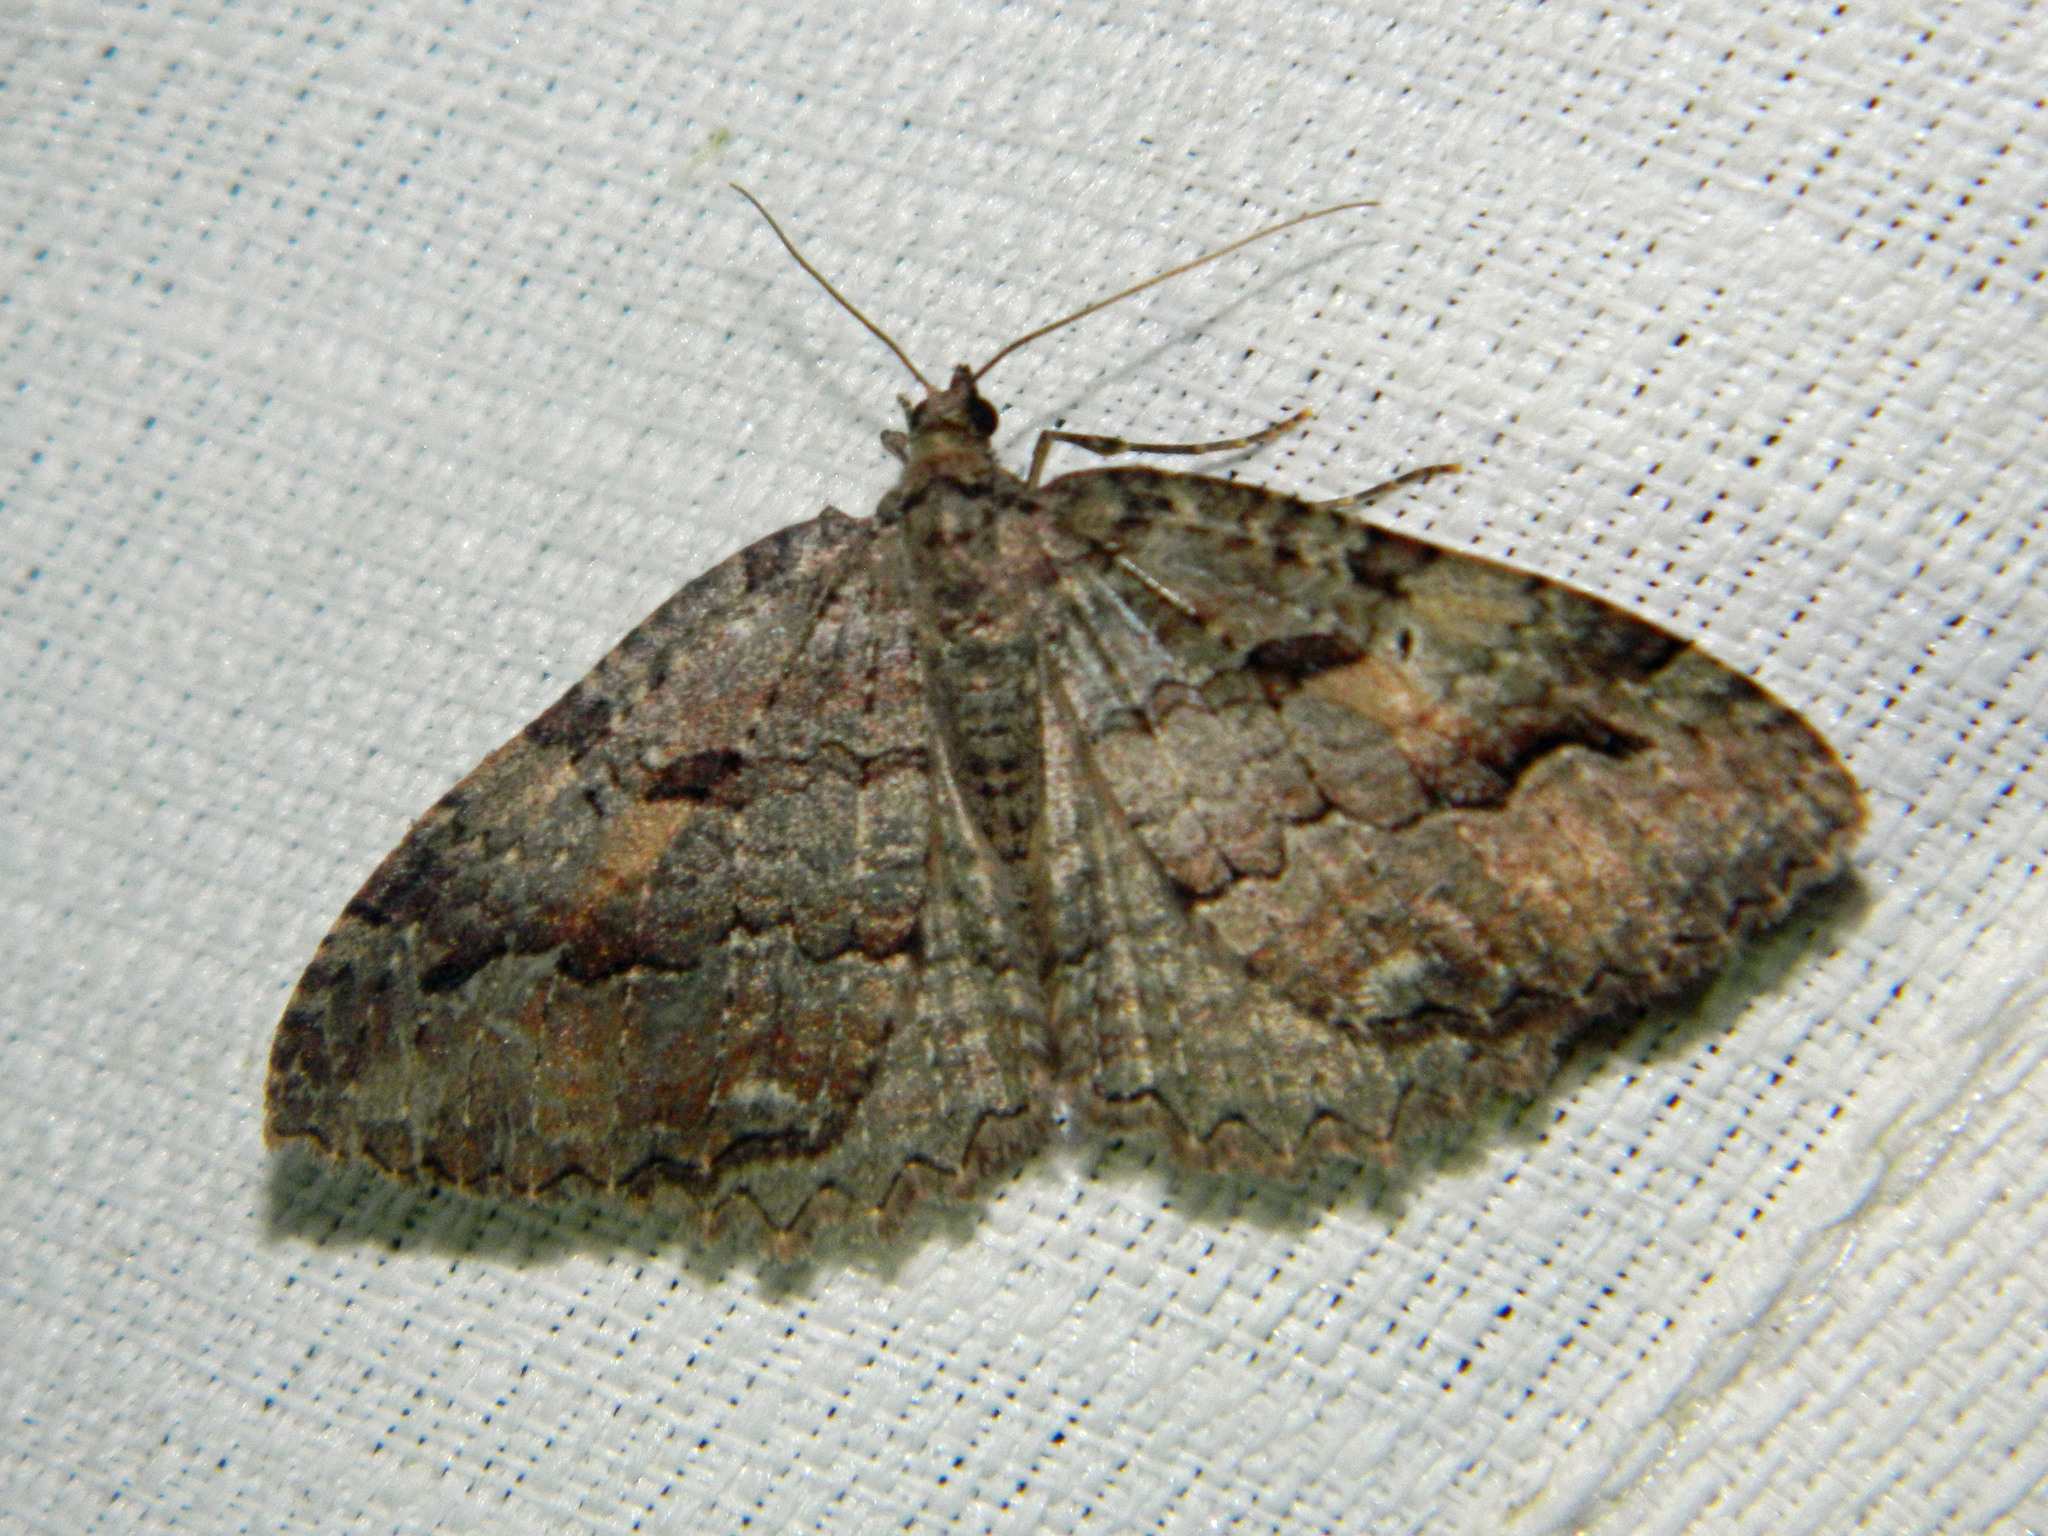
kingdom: Animalia
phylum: Arthropoda
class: Insecta
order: Lepidoptera
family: Geometridae
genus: Triphosa
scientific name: Triphosa haesitata
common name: Tissue moth
